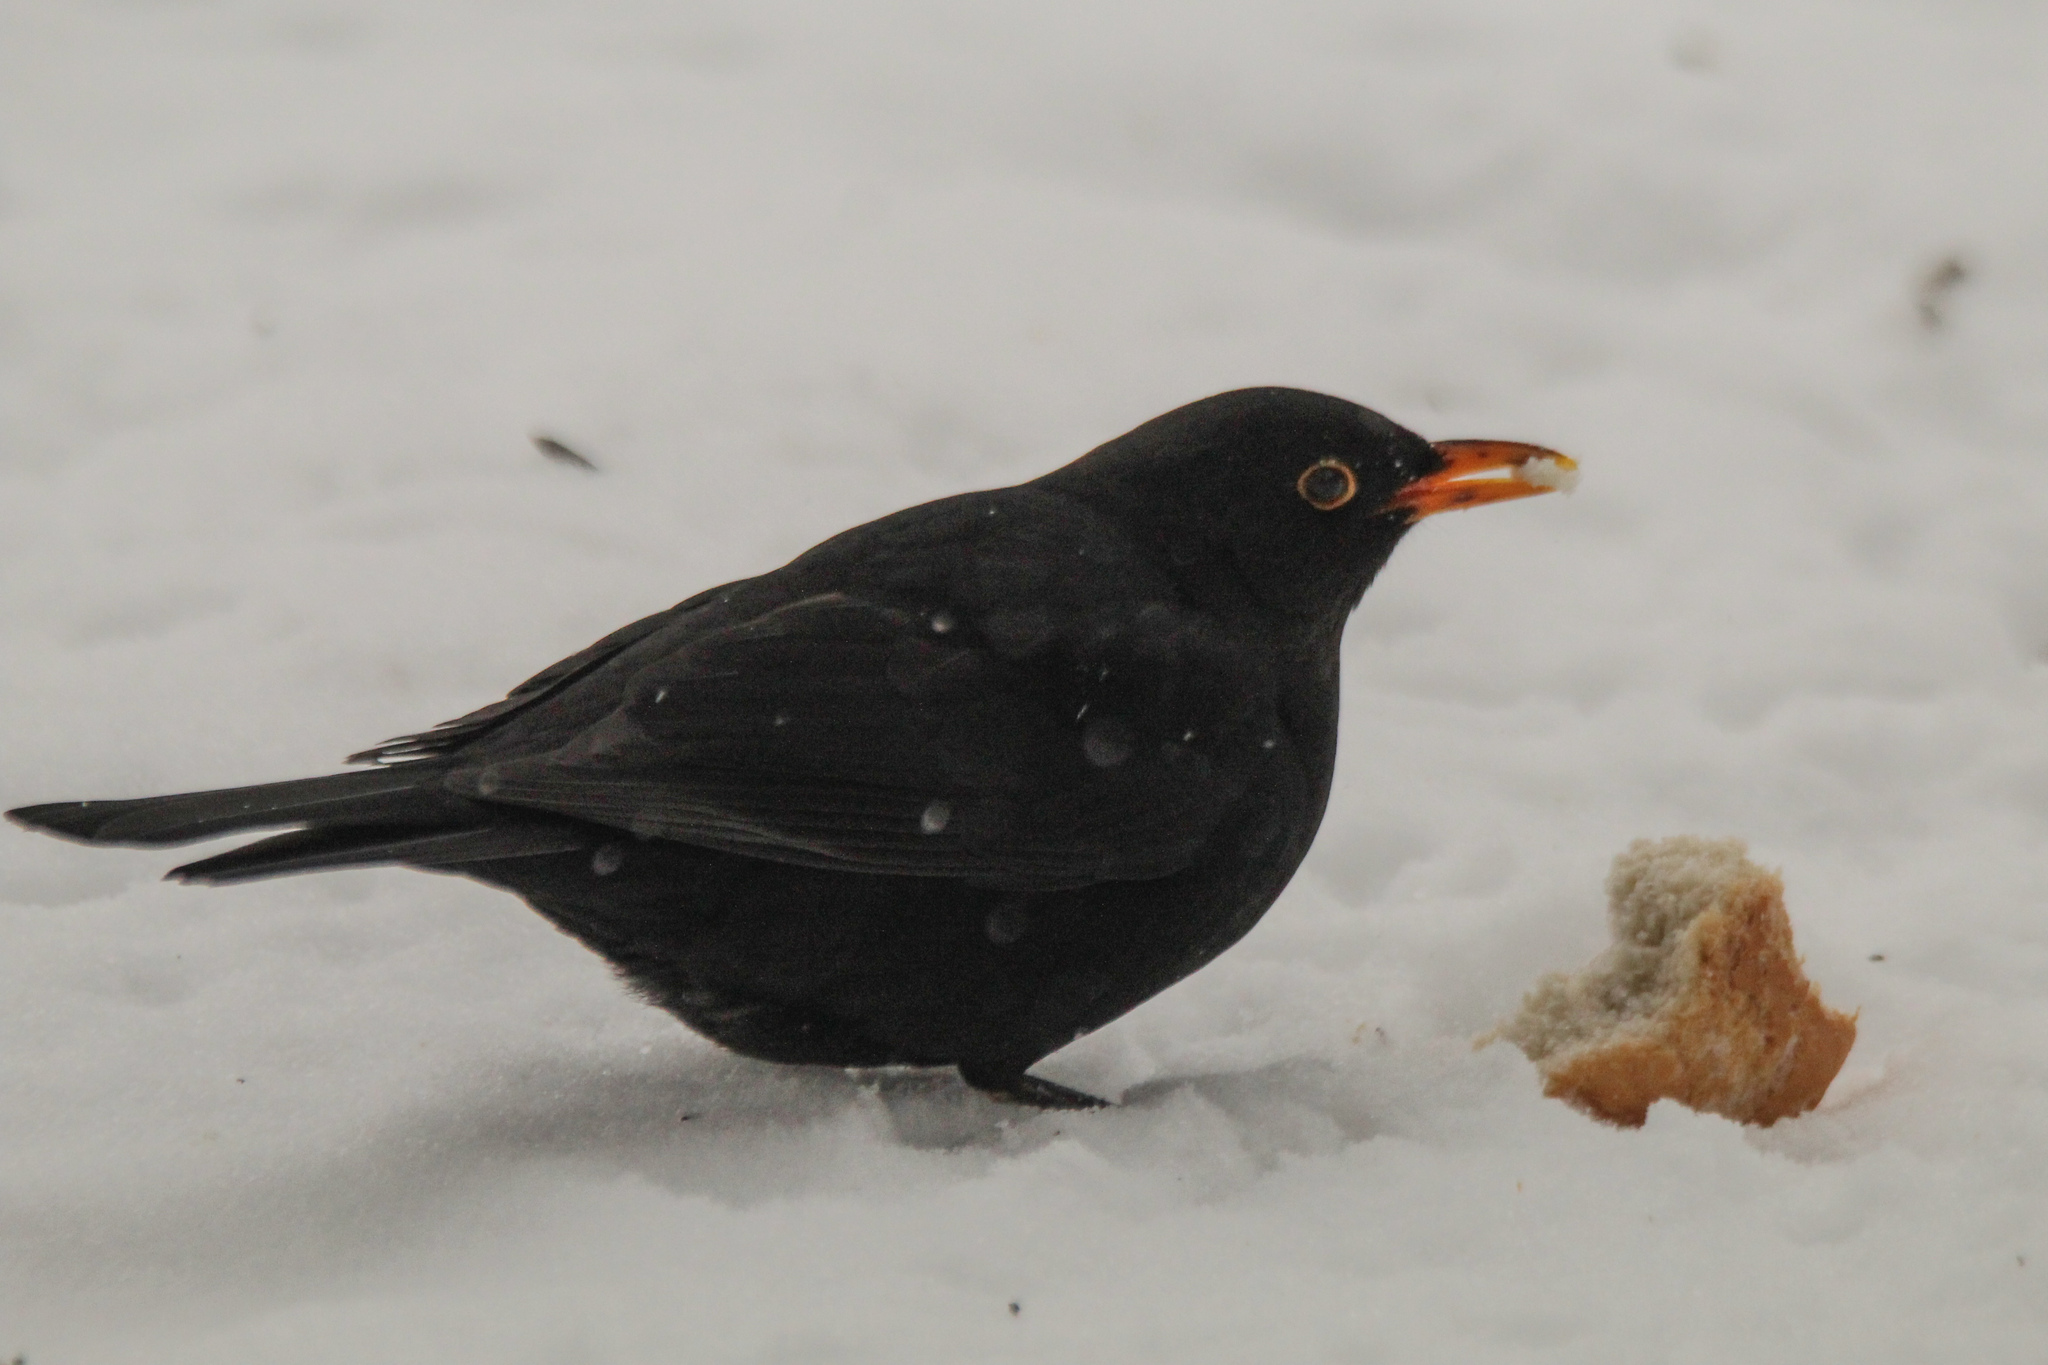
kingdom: Animalia
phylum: Chordata
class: Aves
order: Passeriformes
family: Turdidae
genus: Turdus
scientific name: Turdus merula
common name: Common blackbird
